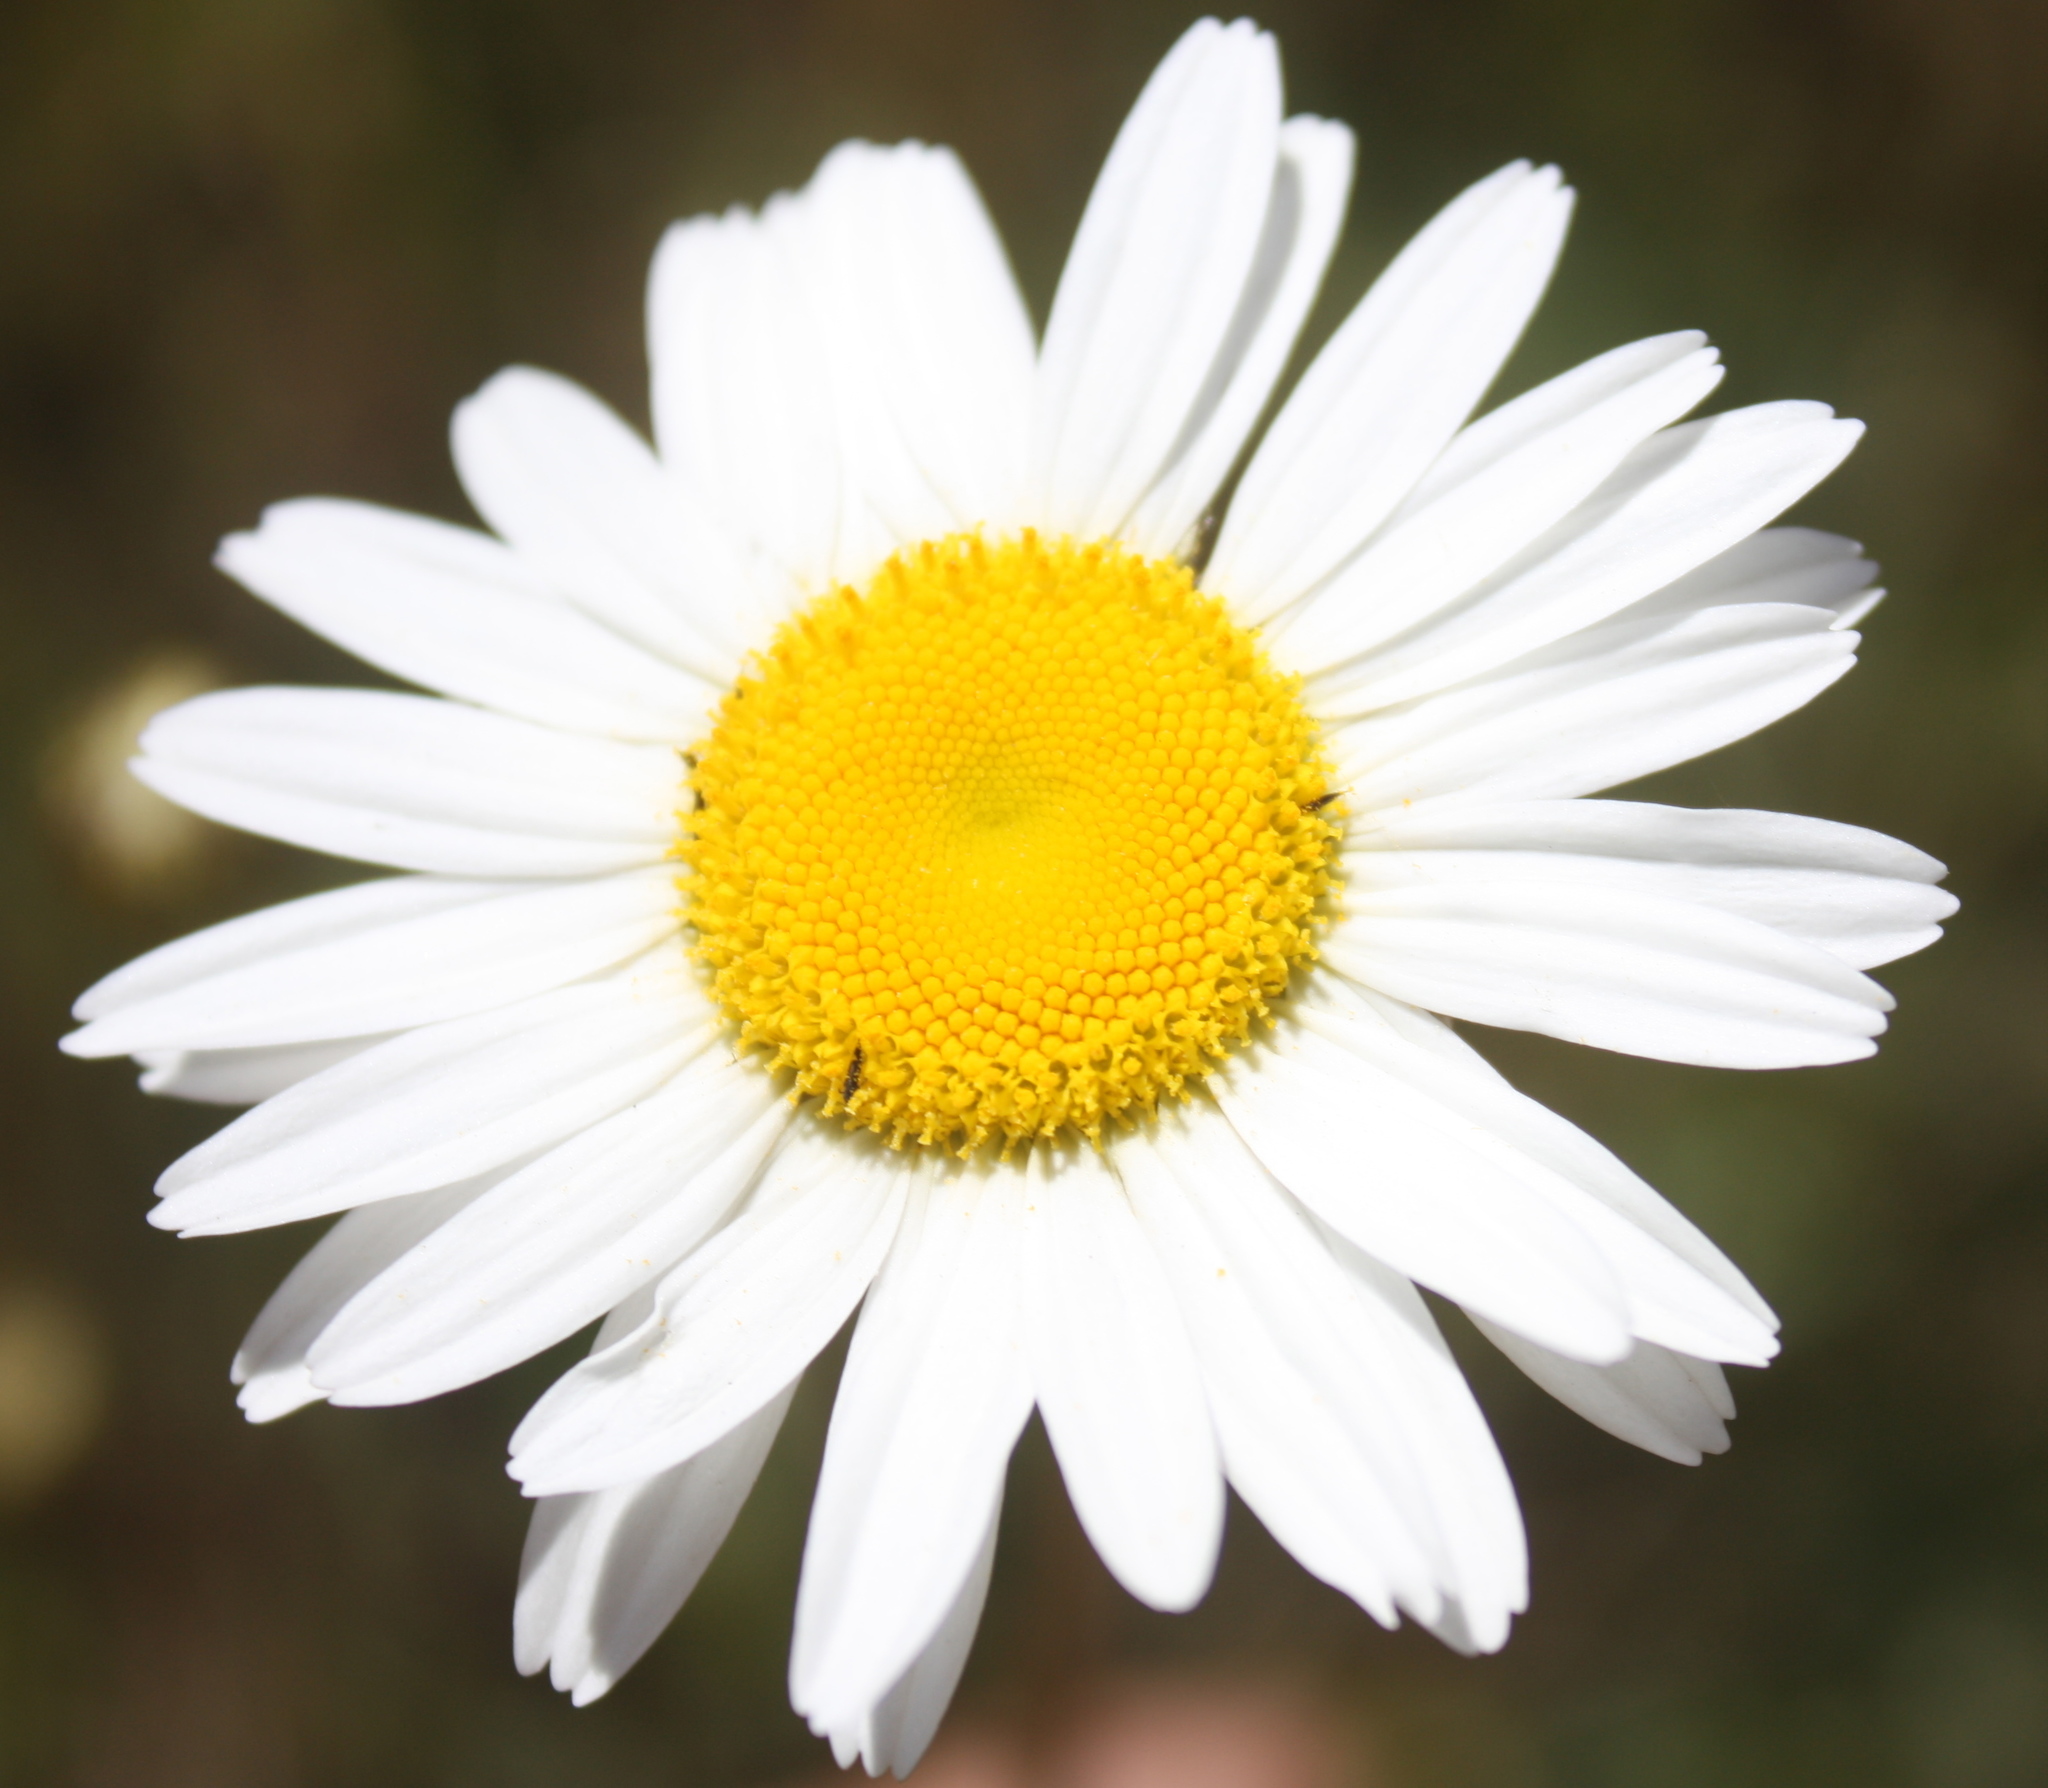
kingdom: Plantae
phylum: Tracheophyta
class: Magnoliopsida
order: Asterales
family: Asteraceae
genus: Leucanthemum
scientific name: Leucanthemum vulgare
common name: Oxeye daisy
